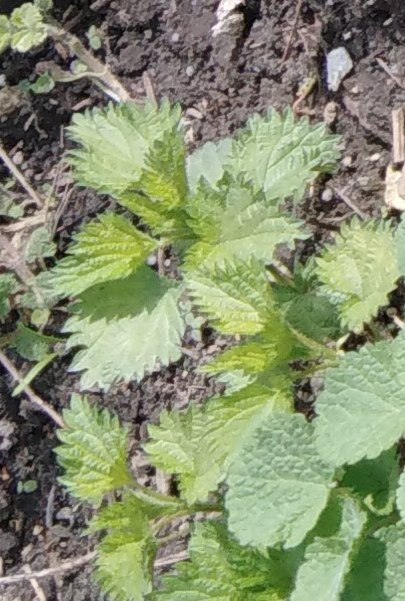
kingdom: Plantae
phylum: Tracheophyta
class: Magnoliopsida
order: Rosales
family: Urticaceae
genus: Urtica
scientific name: Urtica dioica
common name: Common nettle
